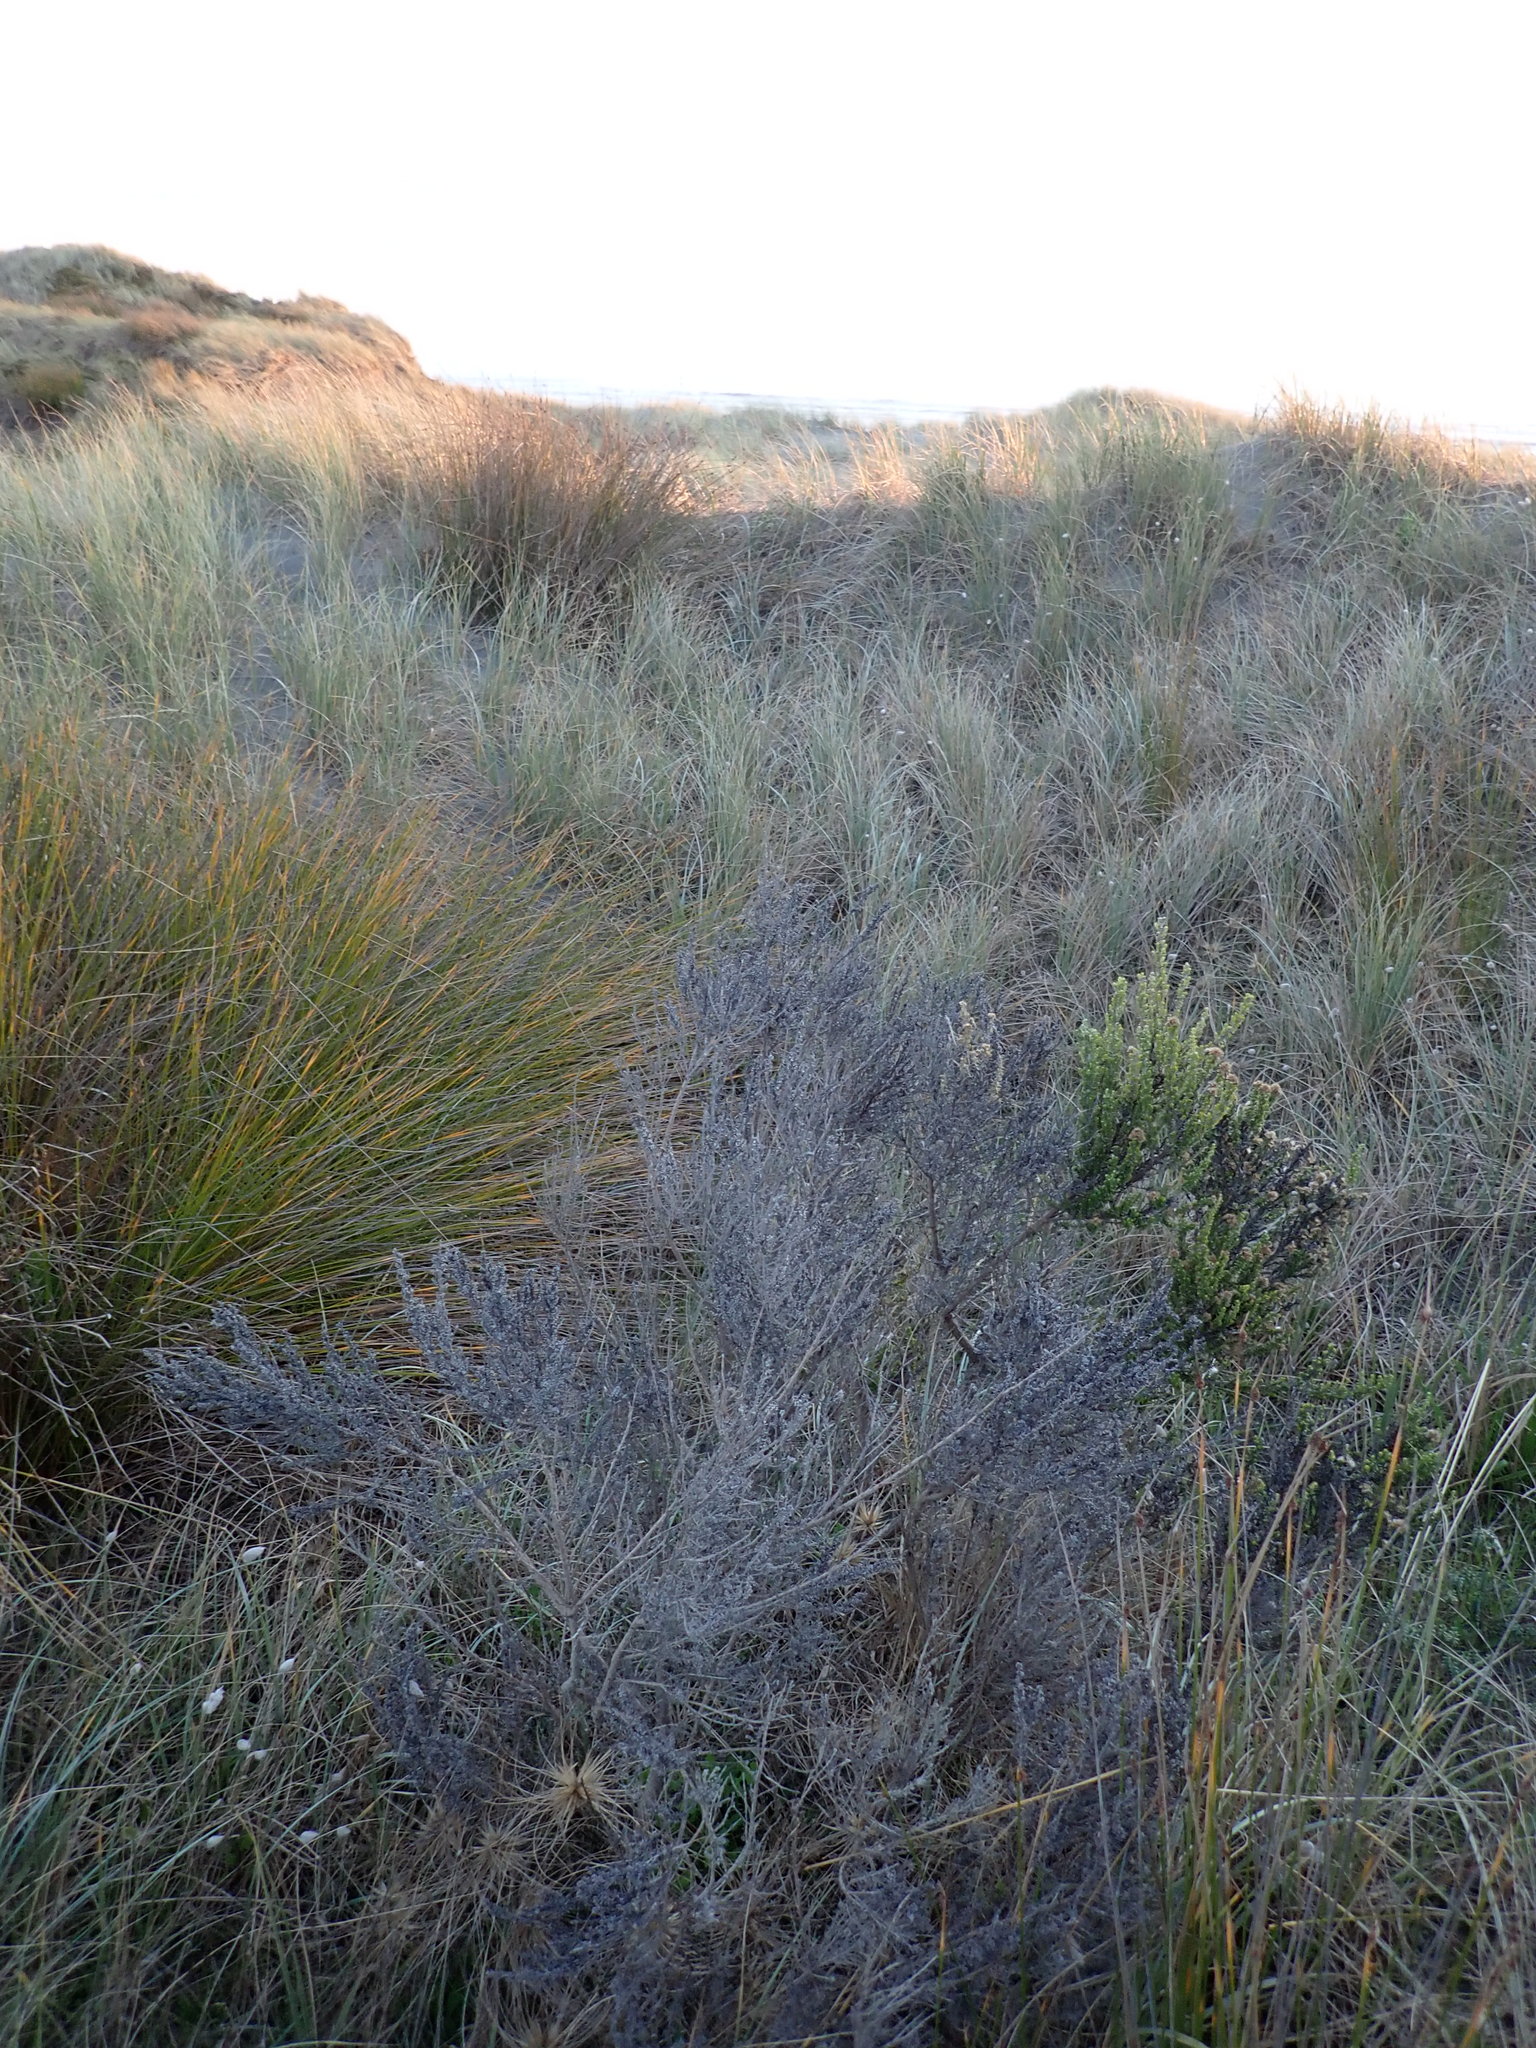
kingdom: Plantae
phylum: Tracheophyta
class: Magnoliopsida
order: Asterales
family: Asteraceae
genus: Ozothamnus
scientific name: Ozothamnus leptophyllus
